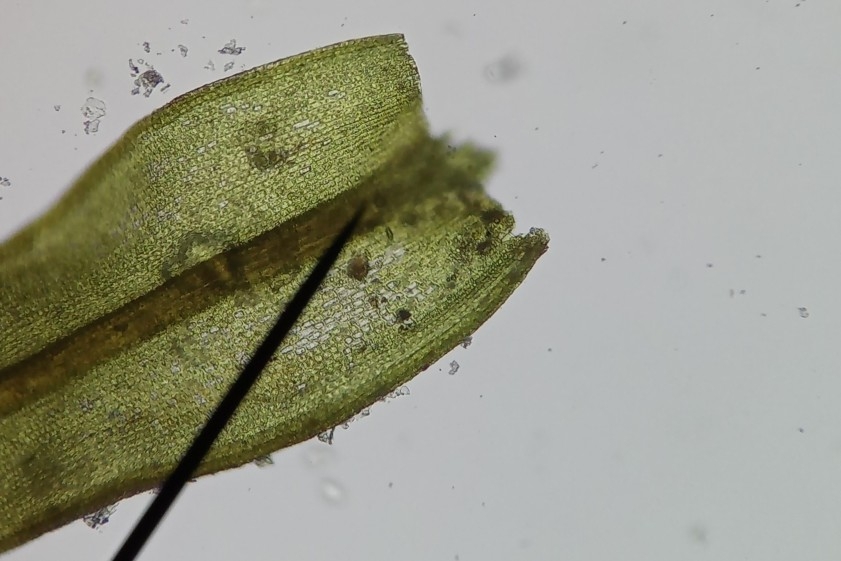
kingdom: Plantae
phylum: Bryophyta
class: Bryopsida
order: Pottiales
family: Pottiaceae
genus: Barbula
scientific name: Barbula unguiculata
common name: Prickly beard moss
